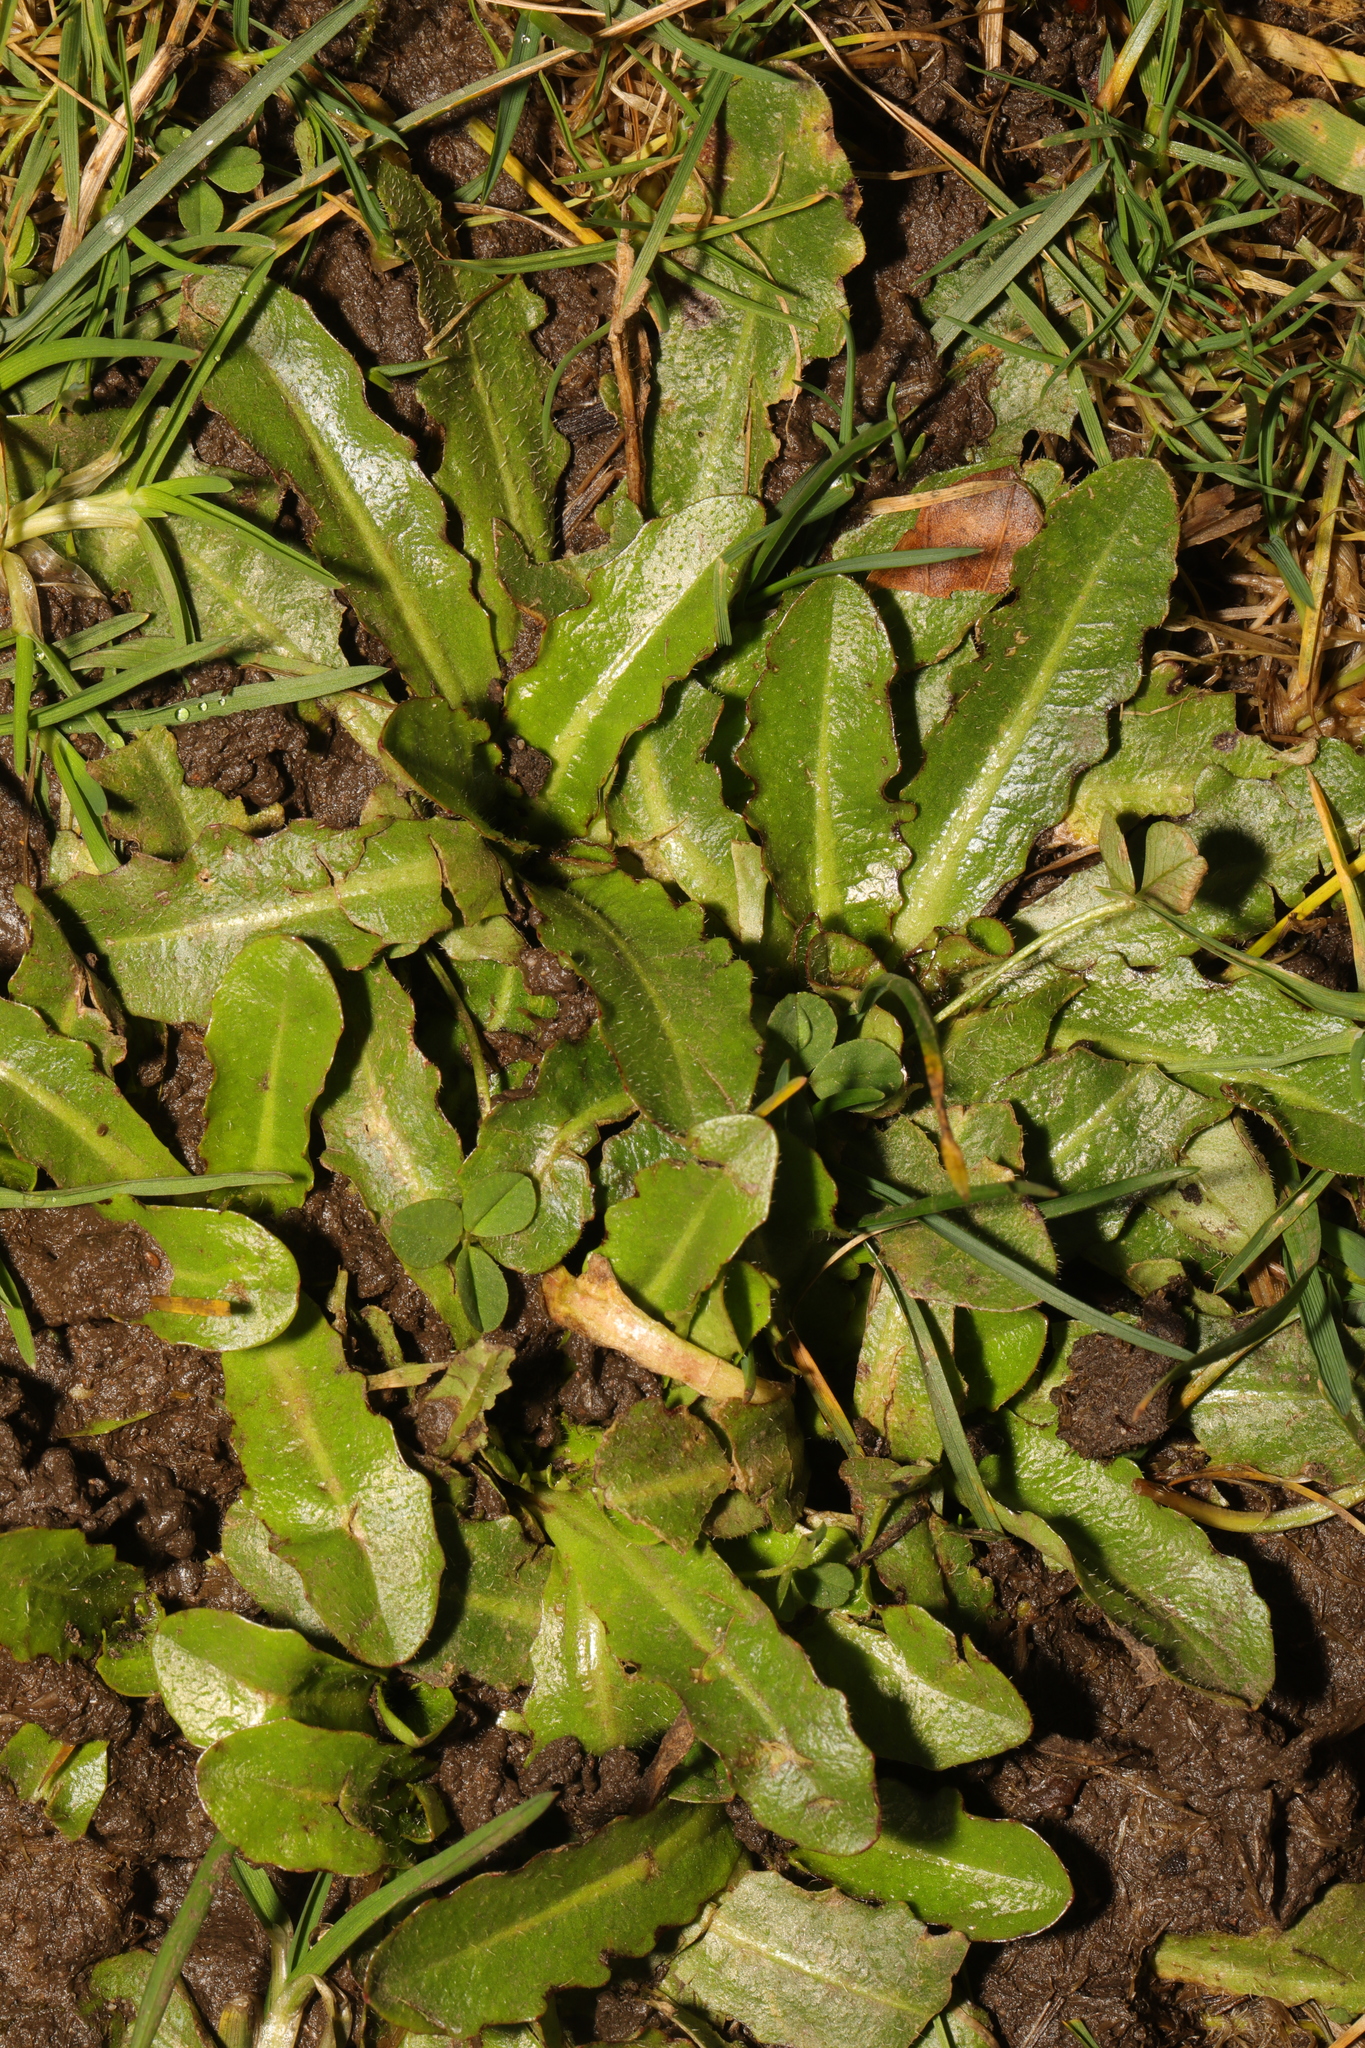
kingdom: Plantae
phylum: Tracheophyta
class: Magnoliopsida
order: Asterales
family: Asteraceae
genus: Hypochaeris
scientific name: Hypochaeris radicata
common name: Flatweed
